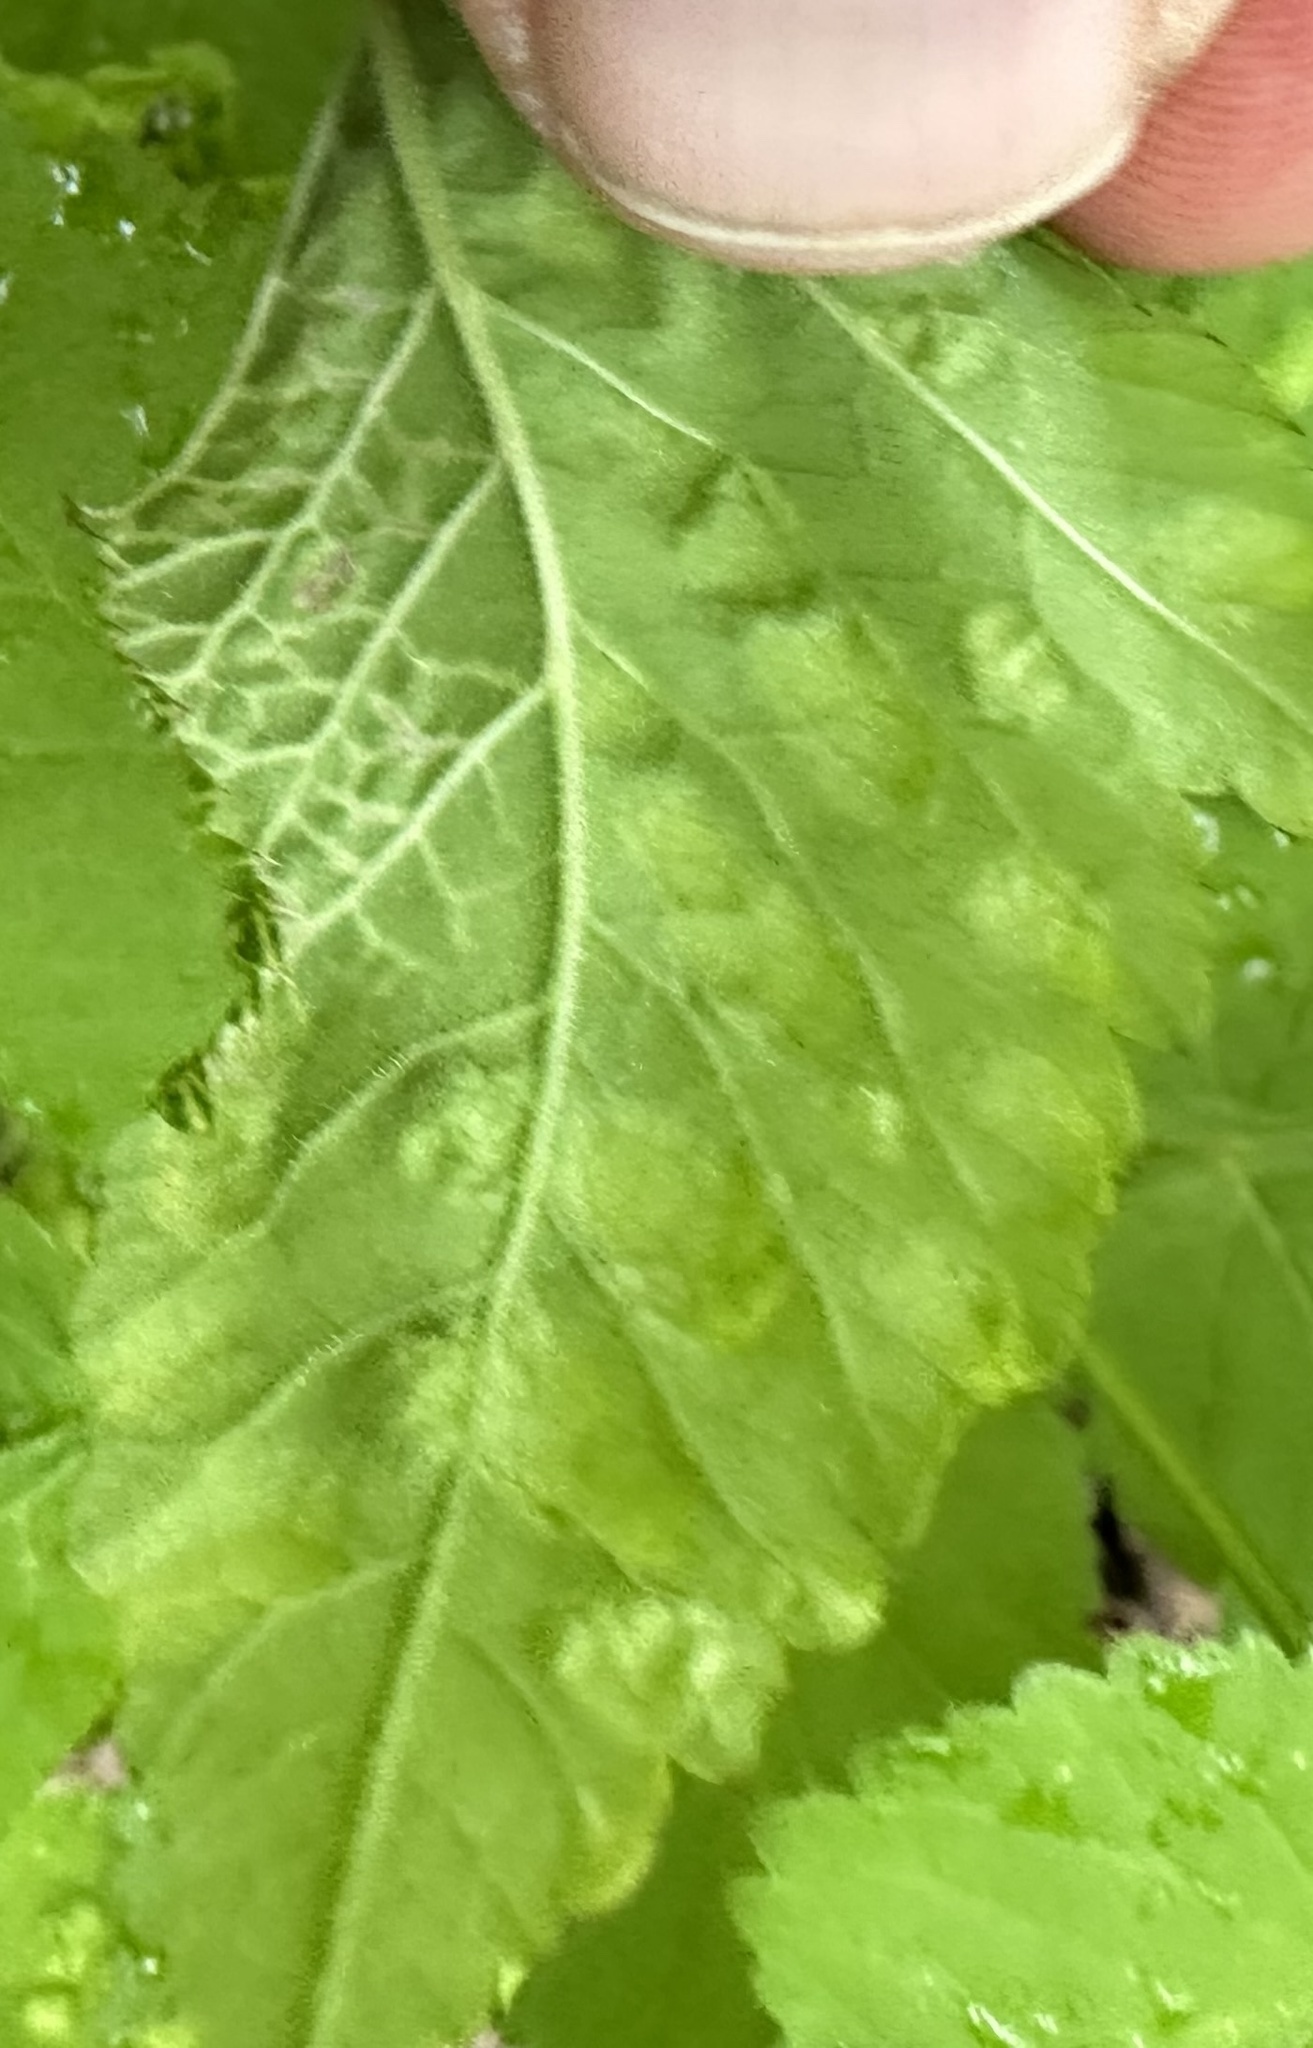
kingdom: Animalia
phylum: Arthropoda
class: Insecta
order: Hemiptera
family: Triozidae
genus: Trioza
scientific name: Trioza flavipennis
